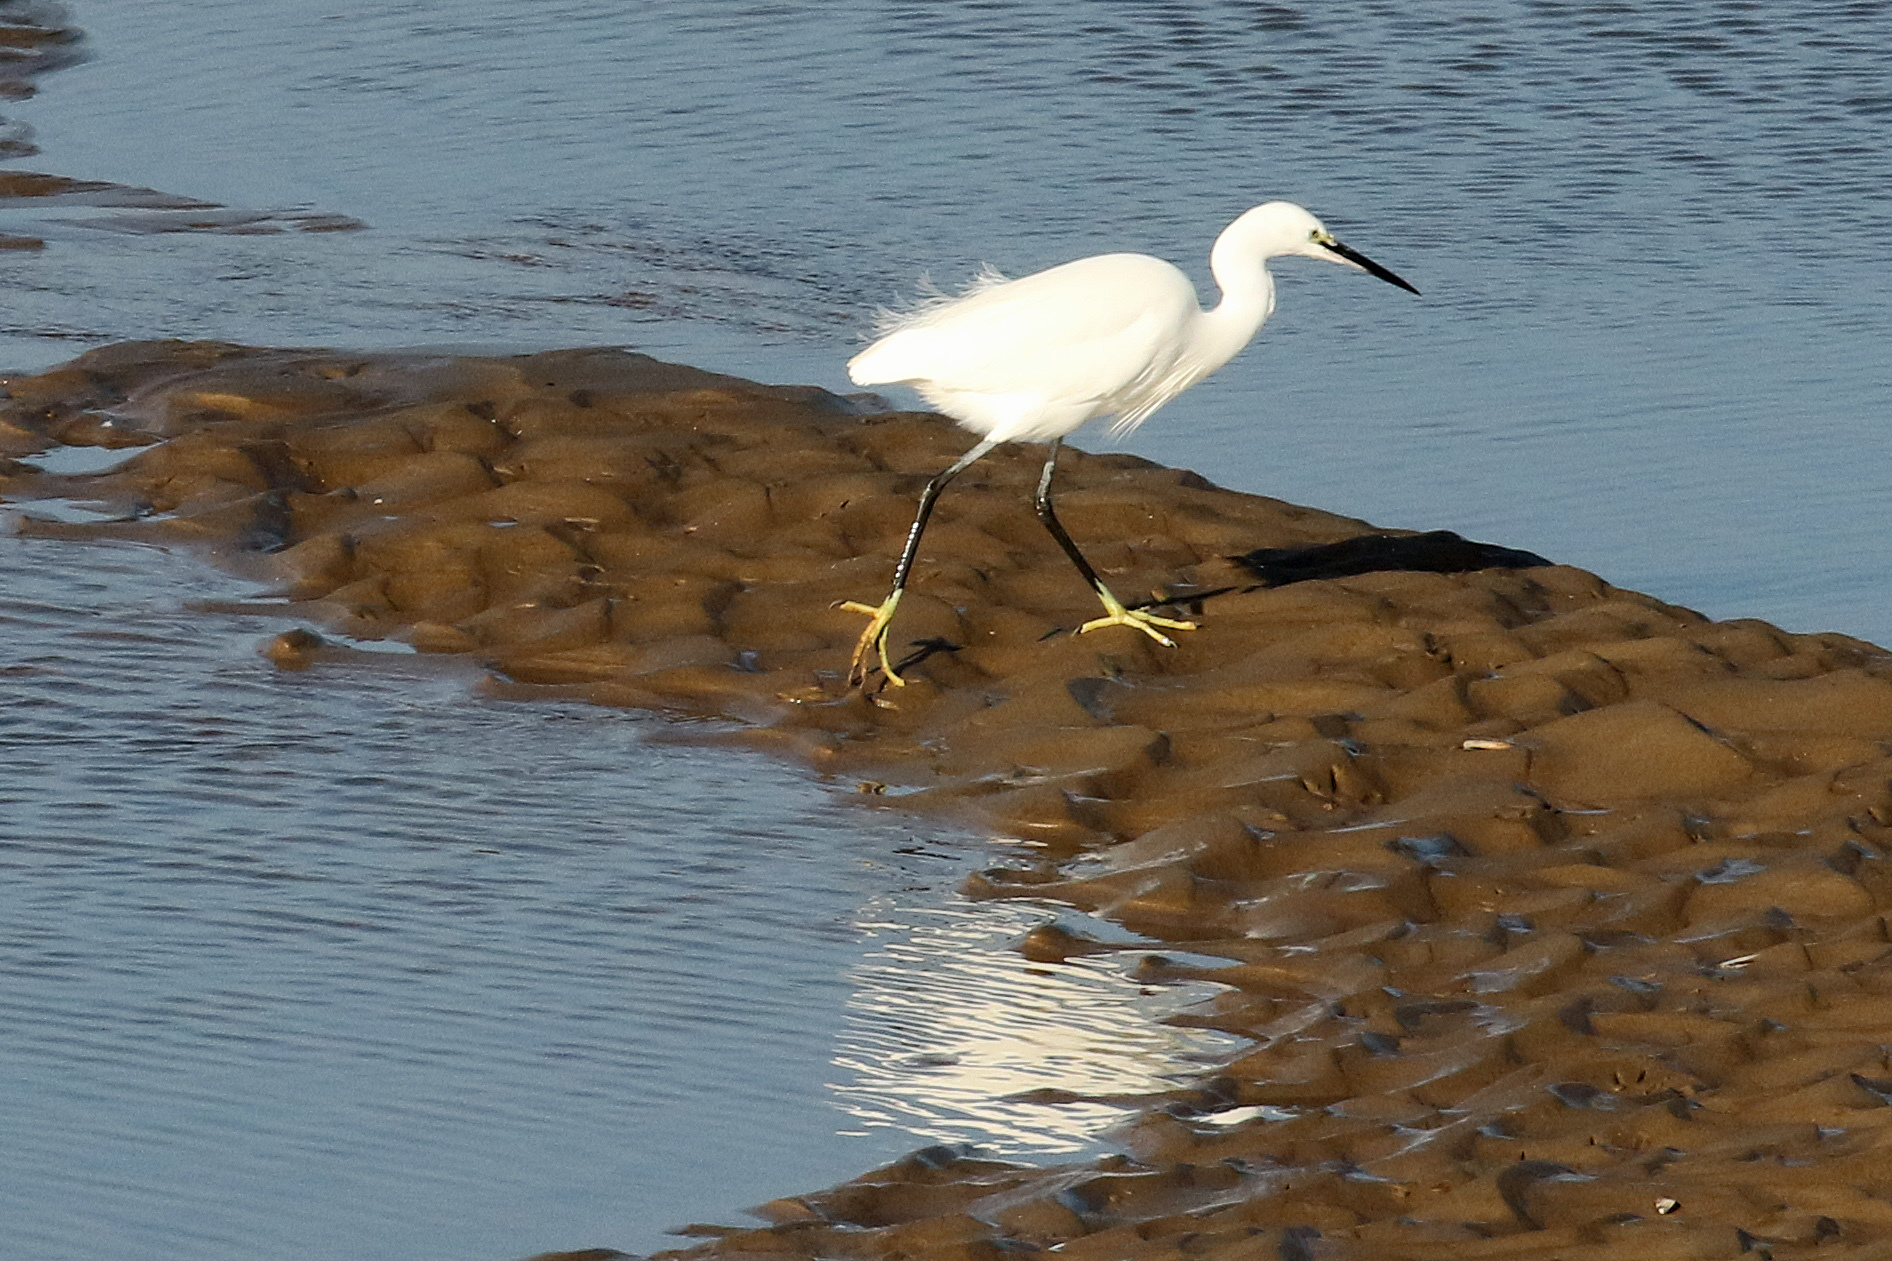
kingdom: Animalia
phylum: Chordata
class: Aves
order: Pelecaniformes
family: Ardeidae
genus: Egretta
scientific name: Egretta garzetta
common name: Little egret
